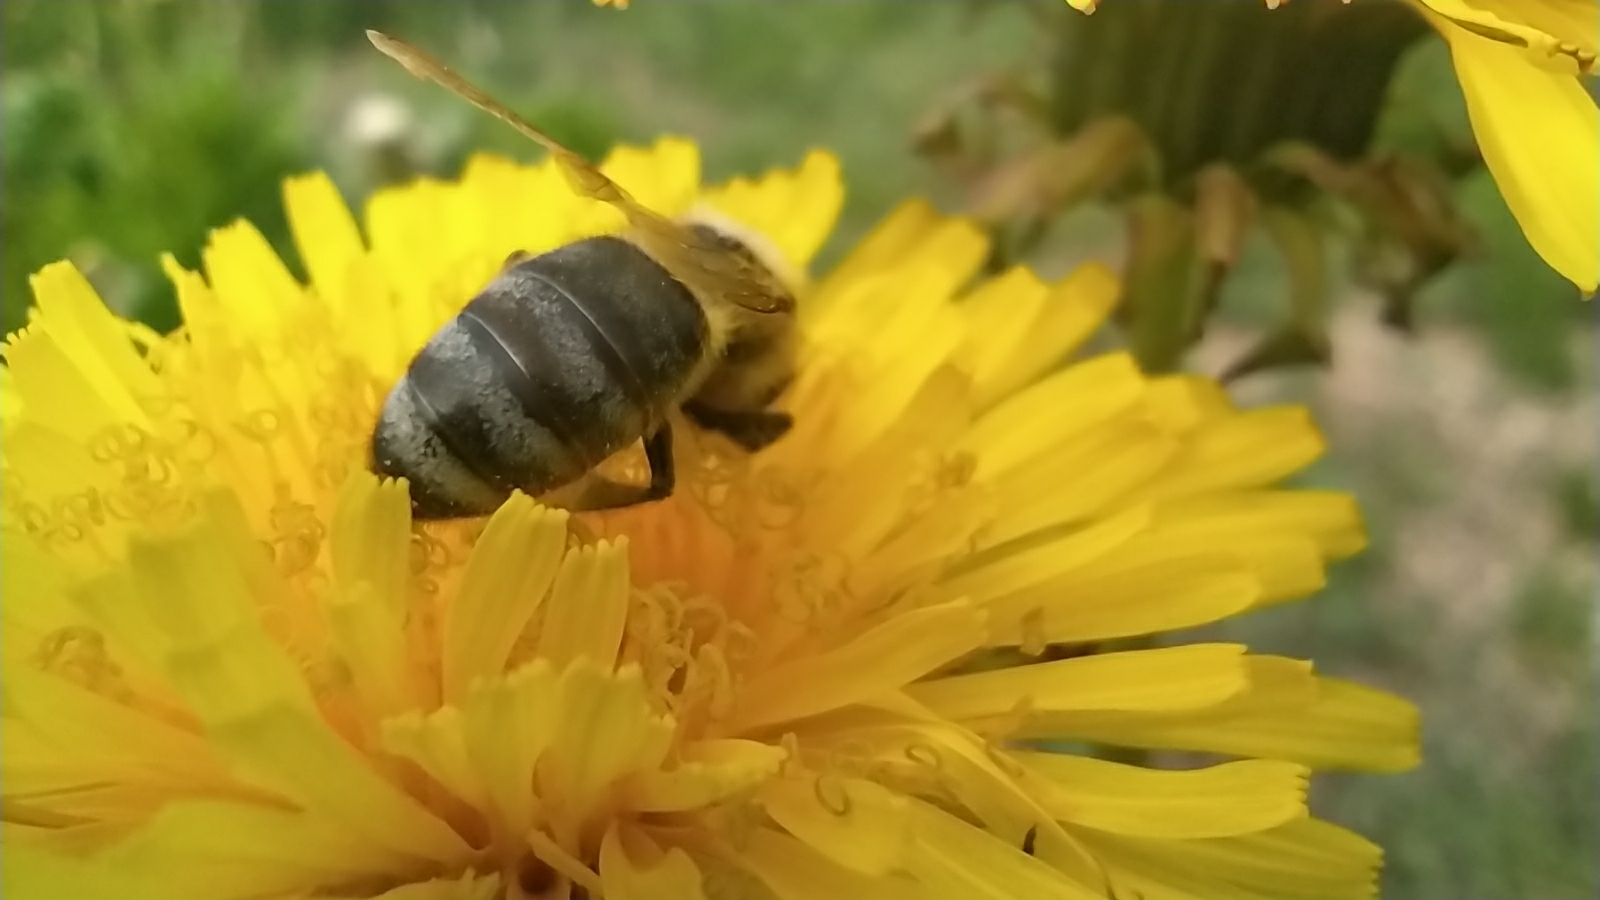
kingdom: Animalia
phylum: Arthropoda
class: Insecta
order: Hymenoptera
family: Apidae
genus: Apis
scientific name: Apis mellifera
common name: Honey bee
